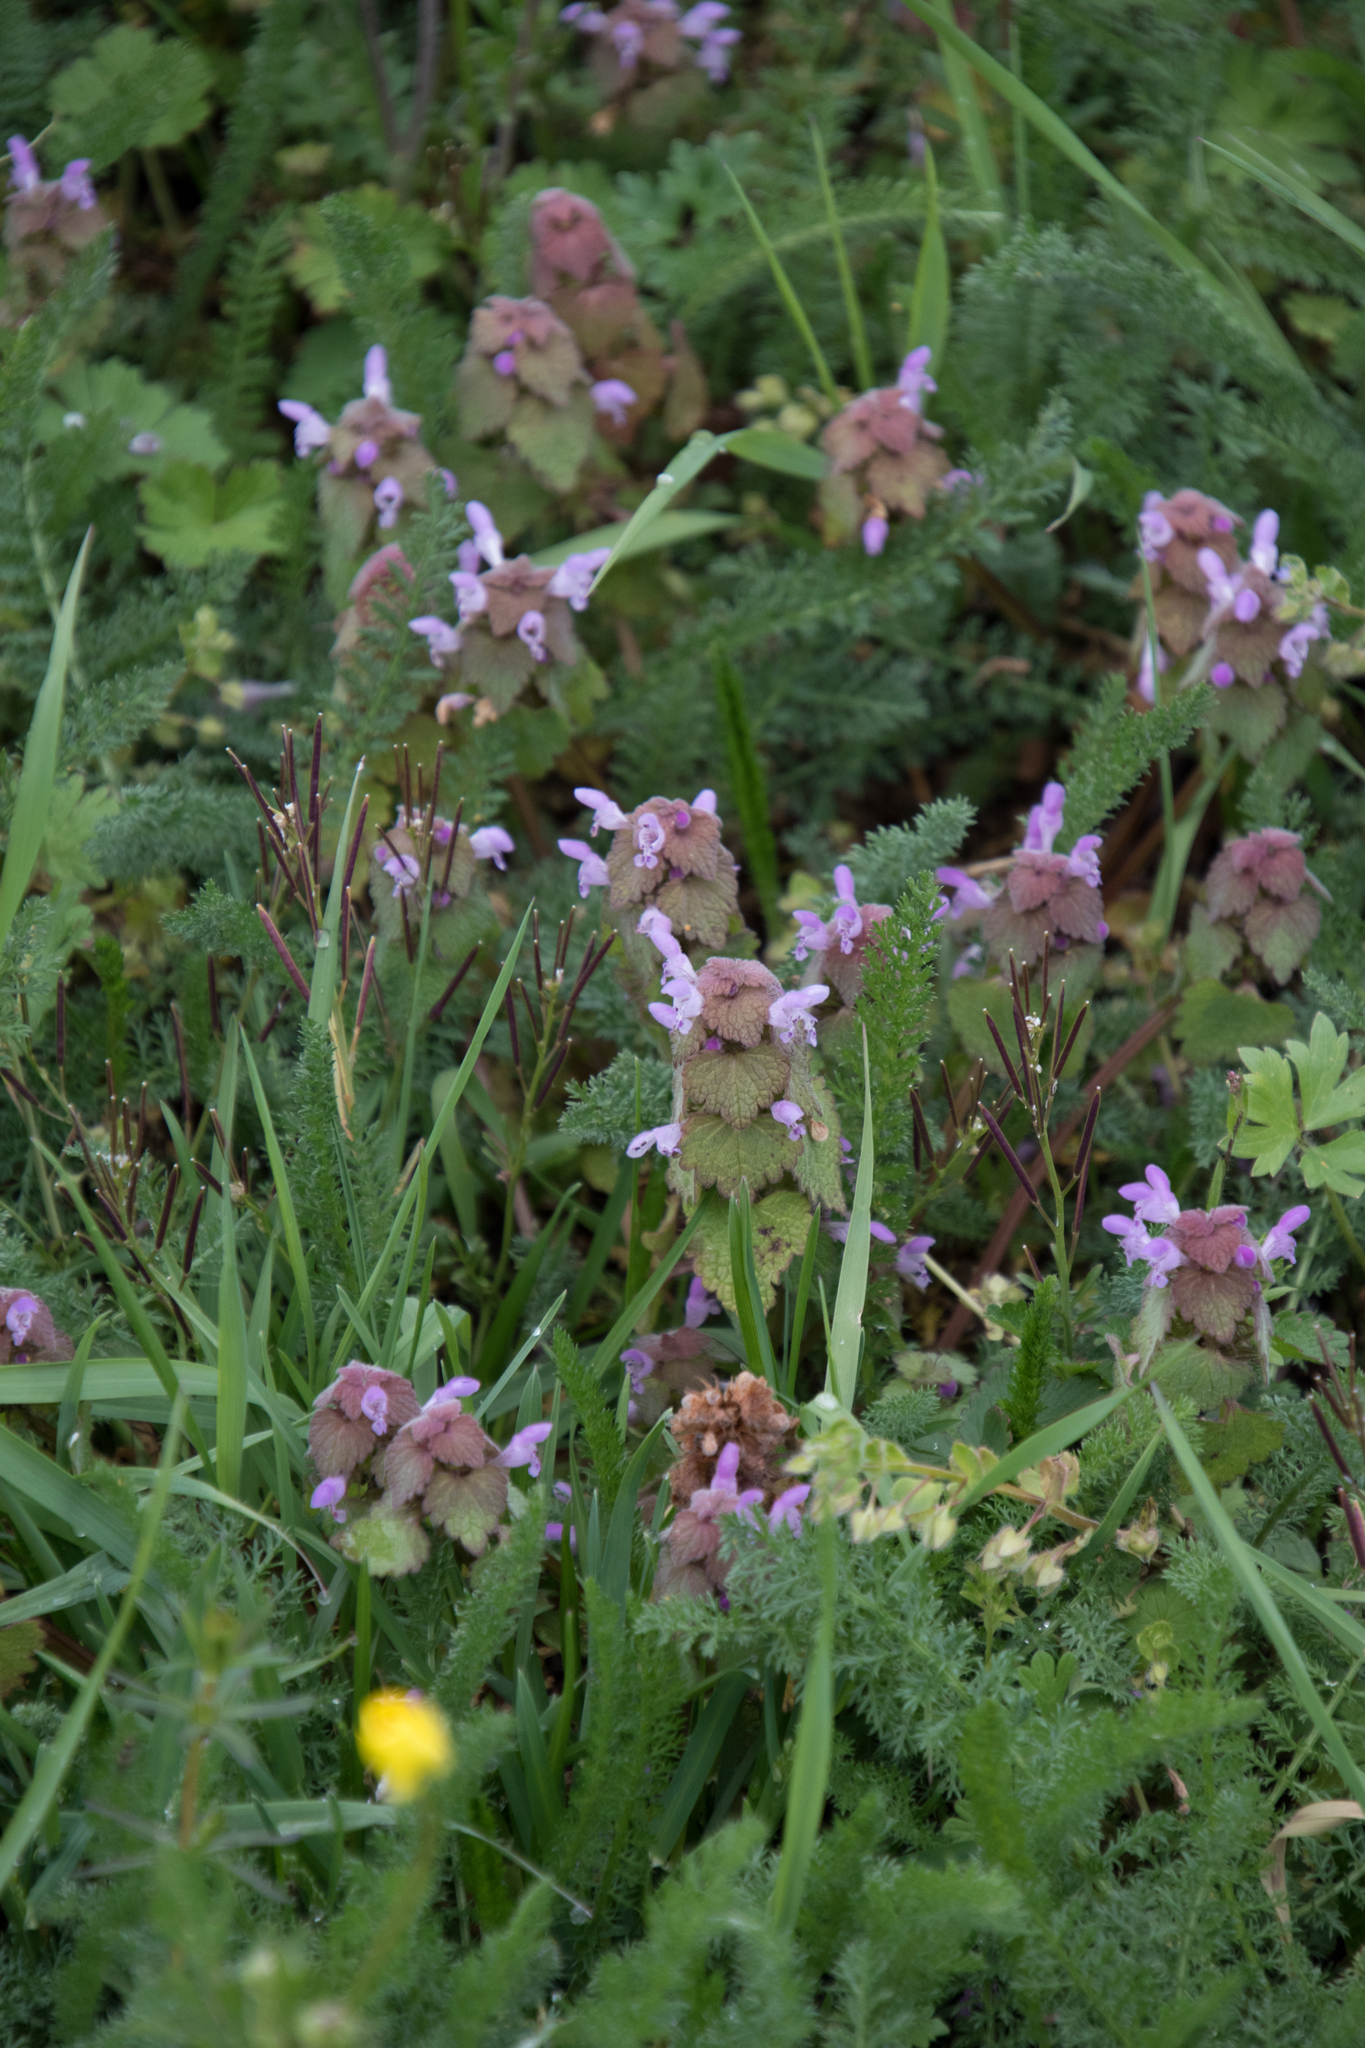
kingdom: Plantae
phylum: Tracheophyta
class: Magnoliopsida
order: Lamiales
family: Lamiaceae
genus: Lamium
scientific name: Lamium purpureum
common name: Red dead-nettle
